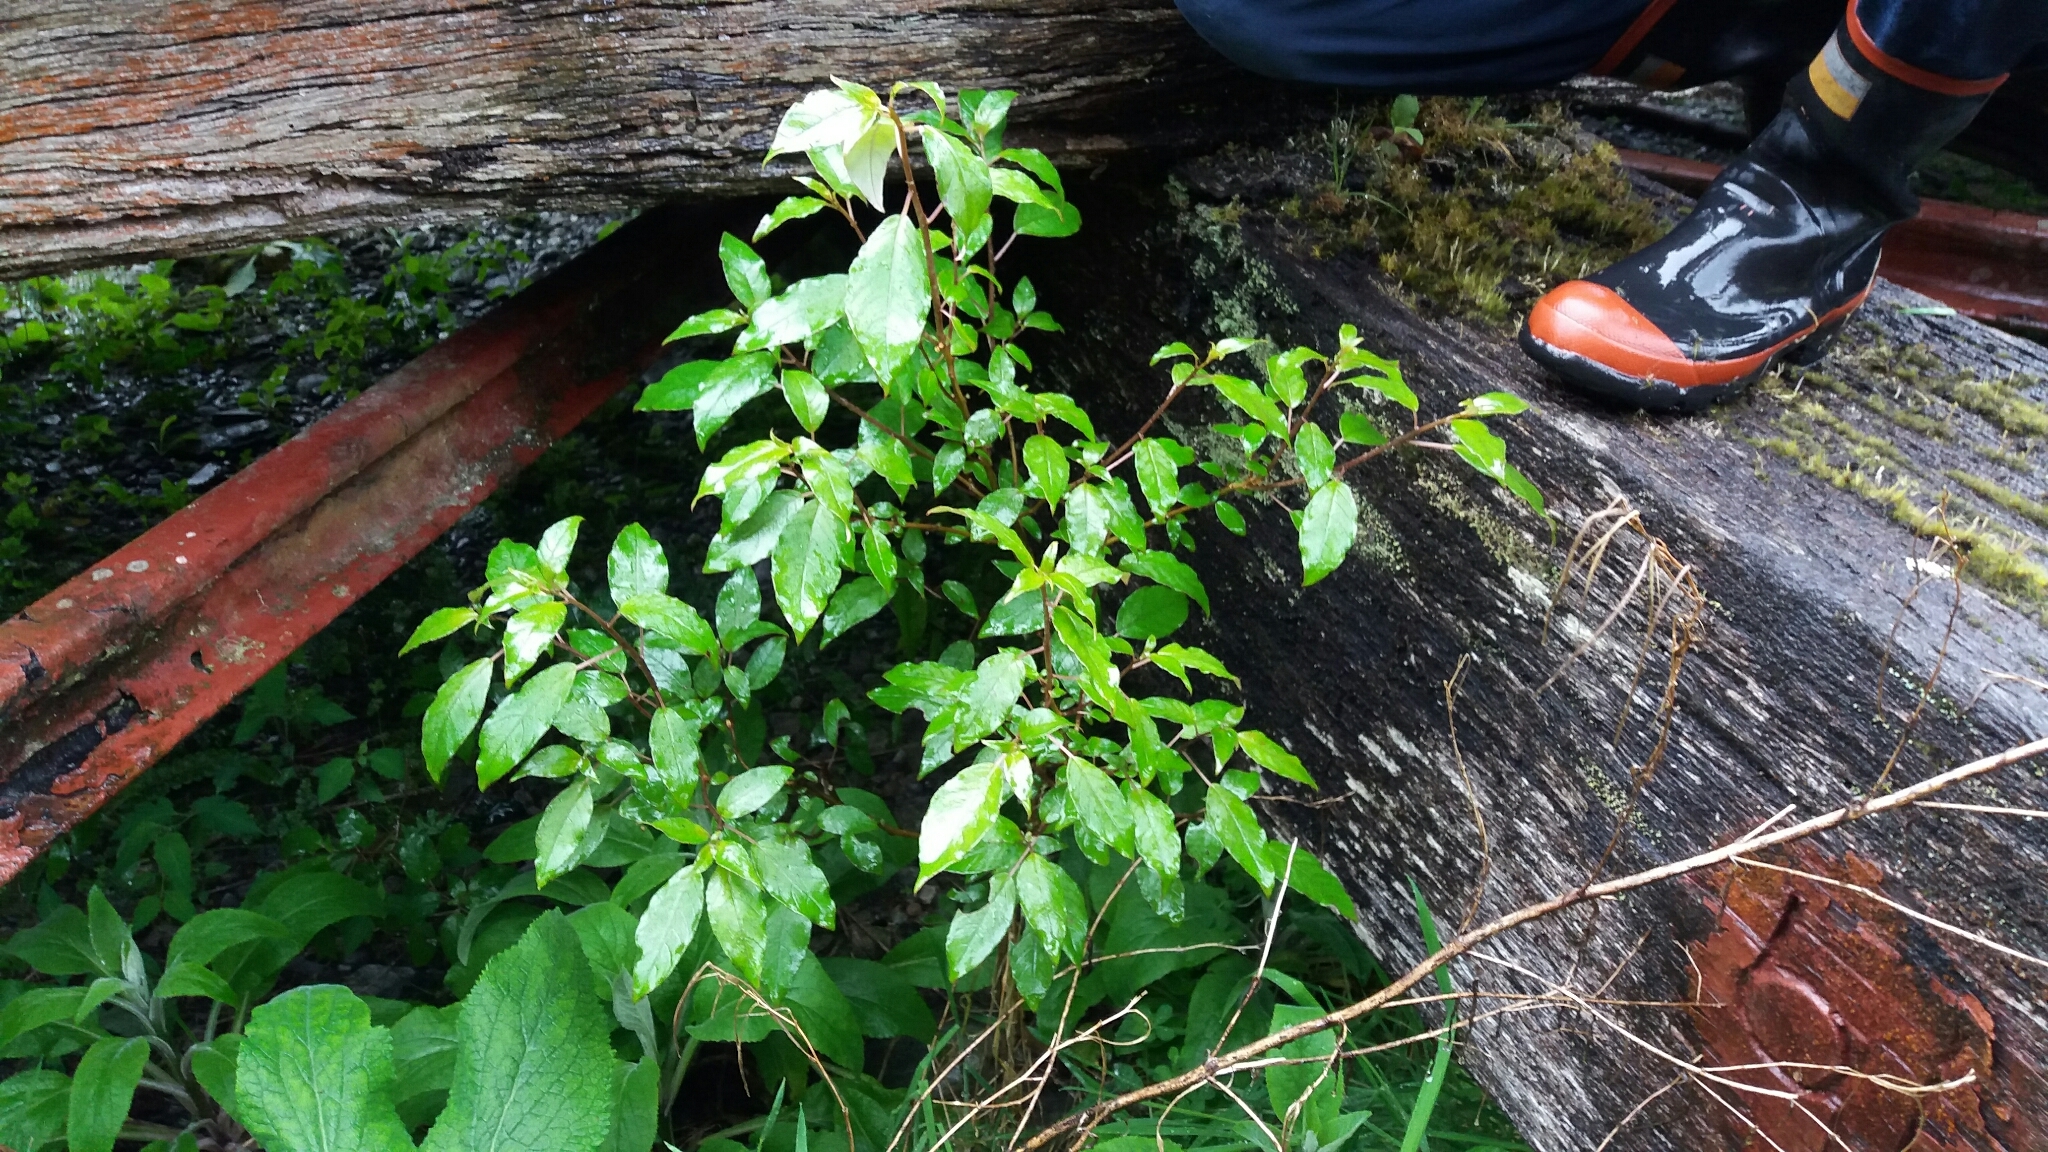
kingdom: Plantae
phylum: Tracheophyta
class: Magnoliopsida
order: Myrtales
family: Onagraceae
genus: Fuchsia
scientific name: Fuchsia excorticata
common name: Tree fuchsia
